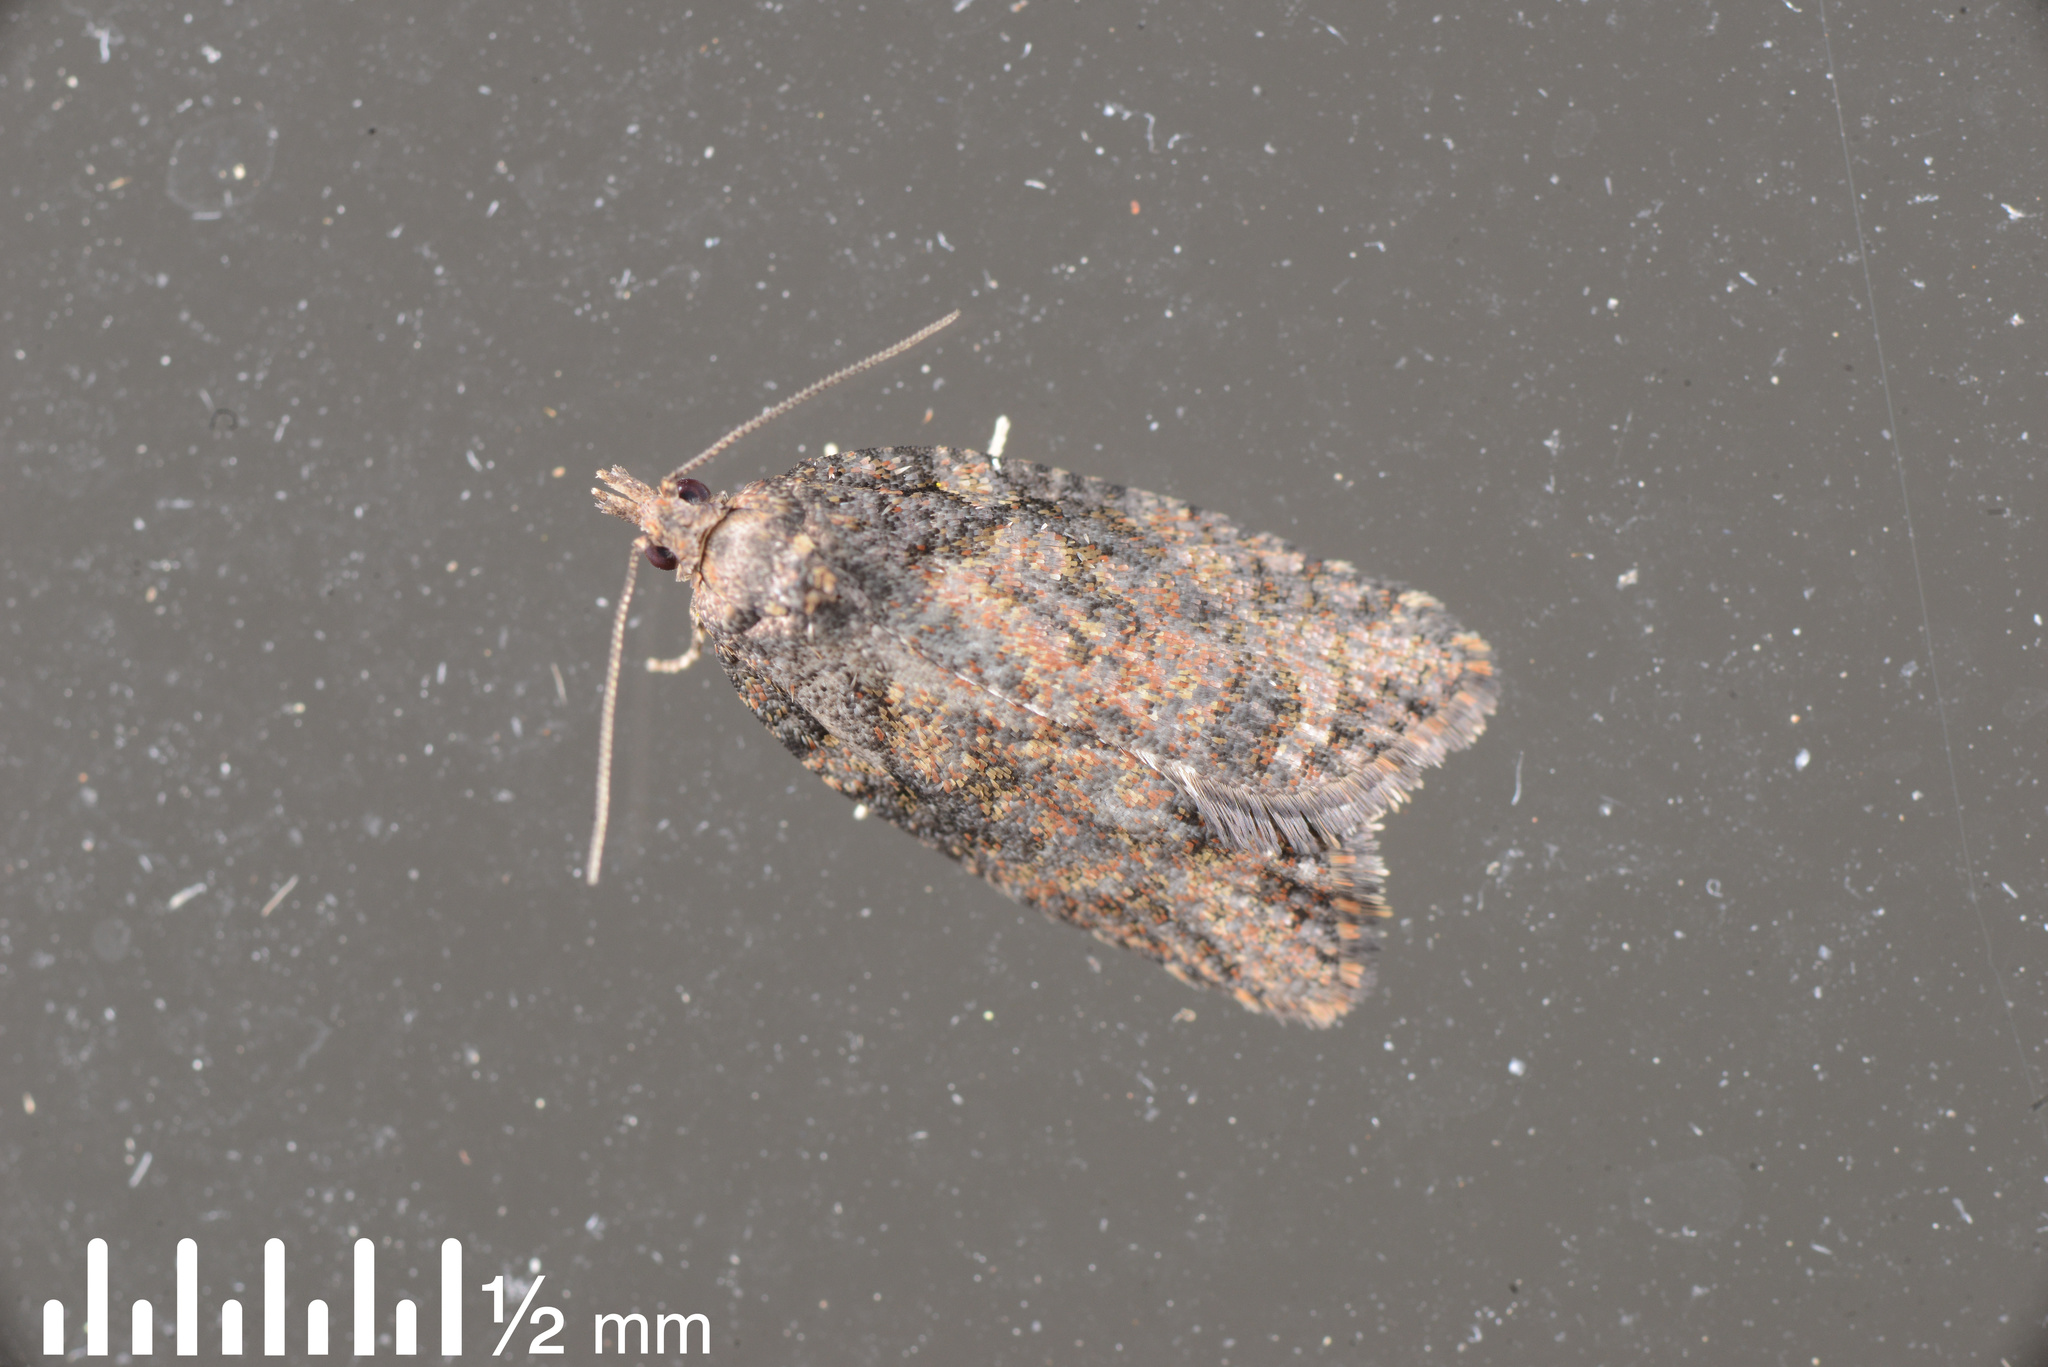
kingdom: Animalia
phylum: Arthropoda
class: Insecta
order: Lepidoptera
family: Tortricidae
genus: Capua
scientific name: Capua intractana
